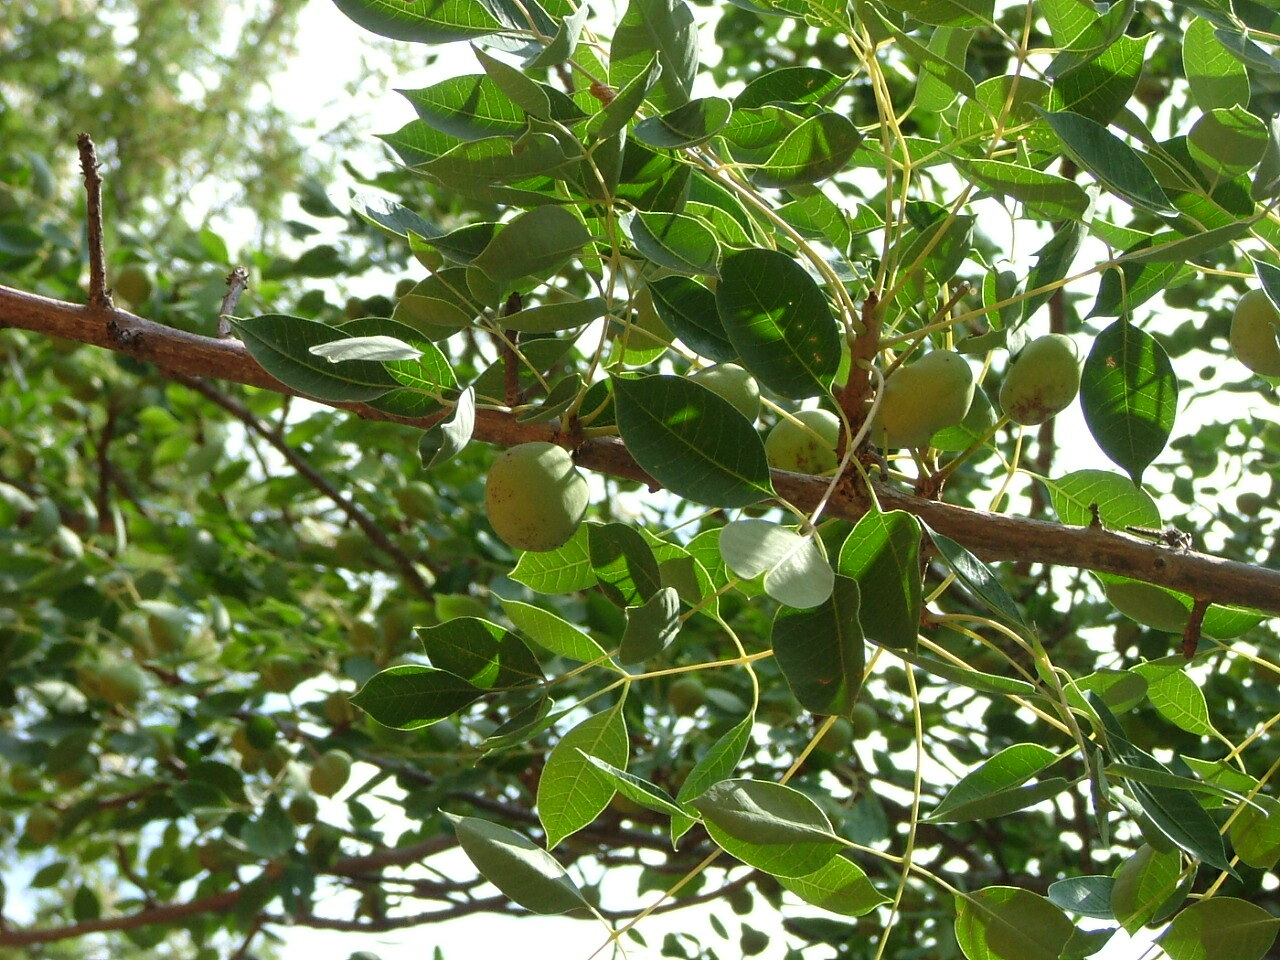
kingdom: Plantae
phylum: Tracheophyta
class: Magnoliopsida
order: Sapindales
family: Anacardiaceae
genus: Sclerocarya
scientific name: Sclerocarya birrea
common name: Marula
